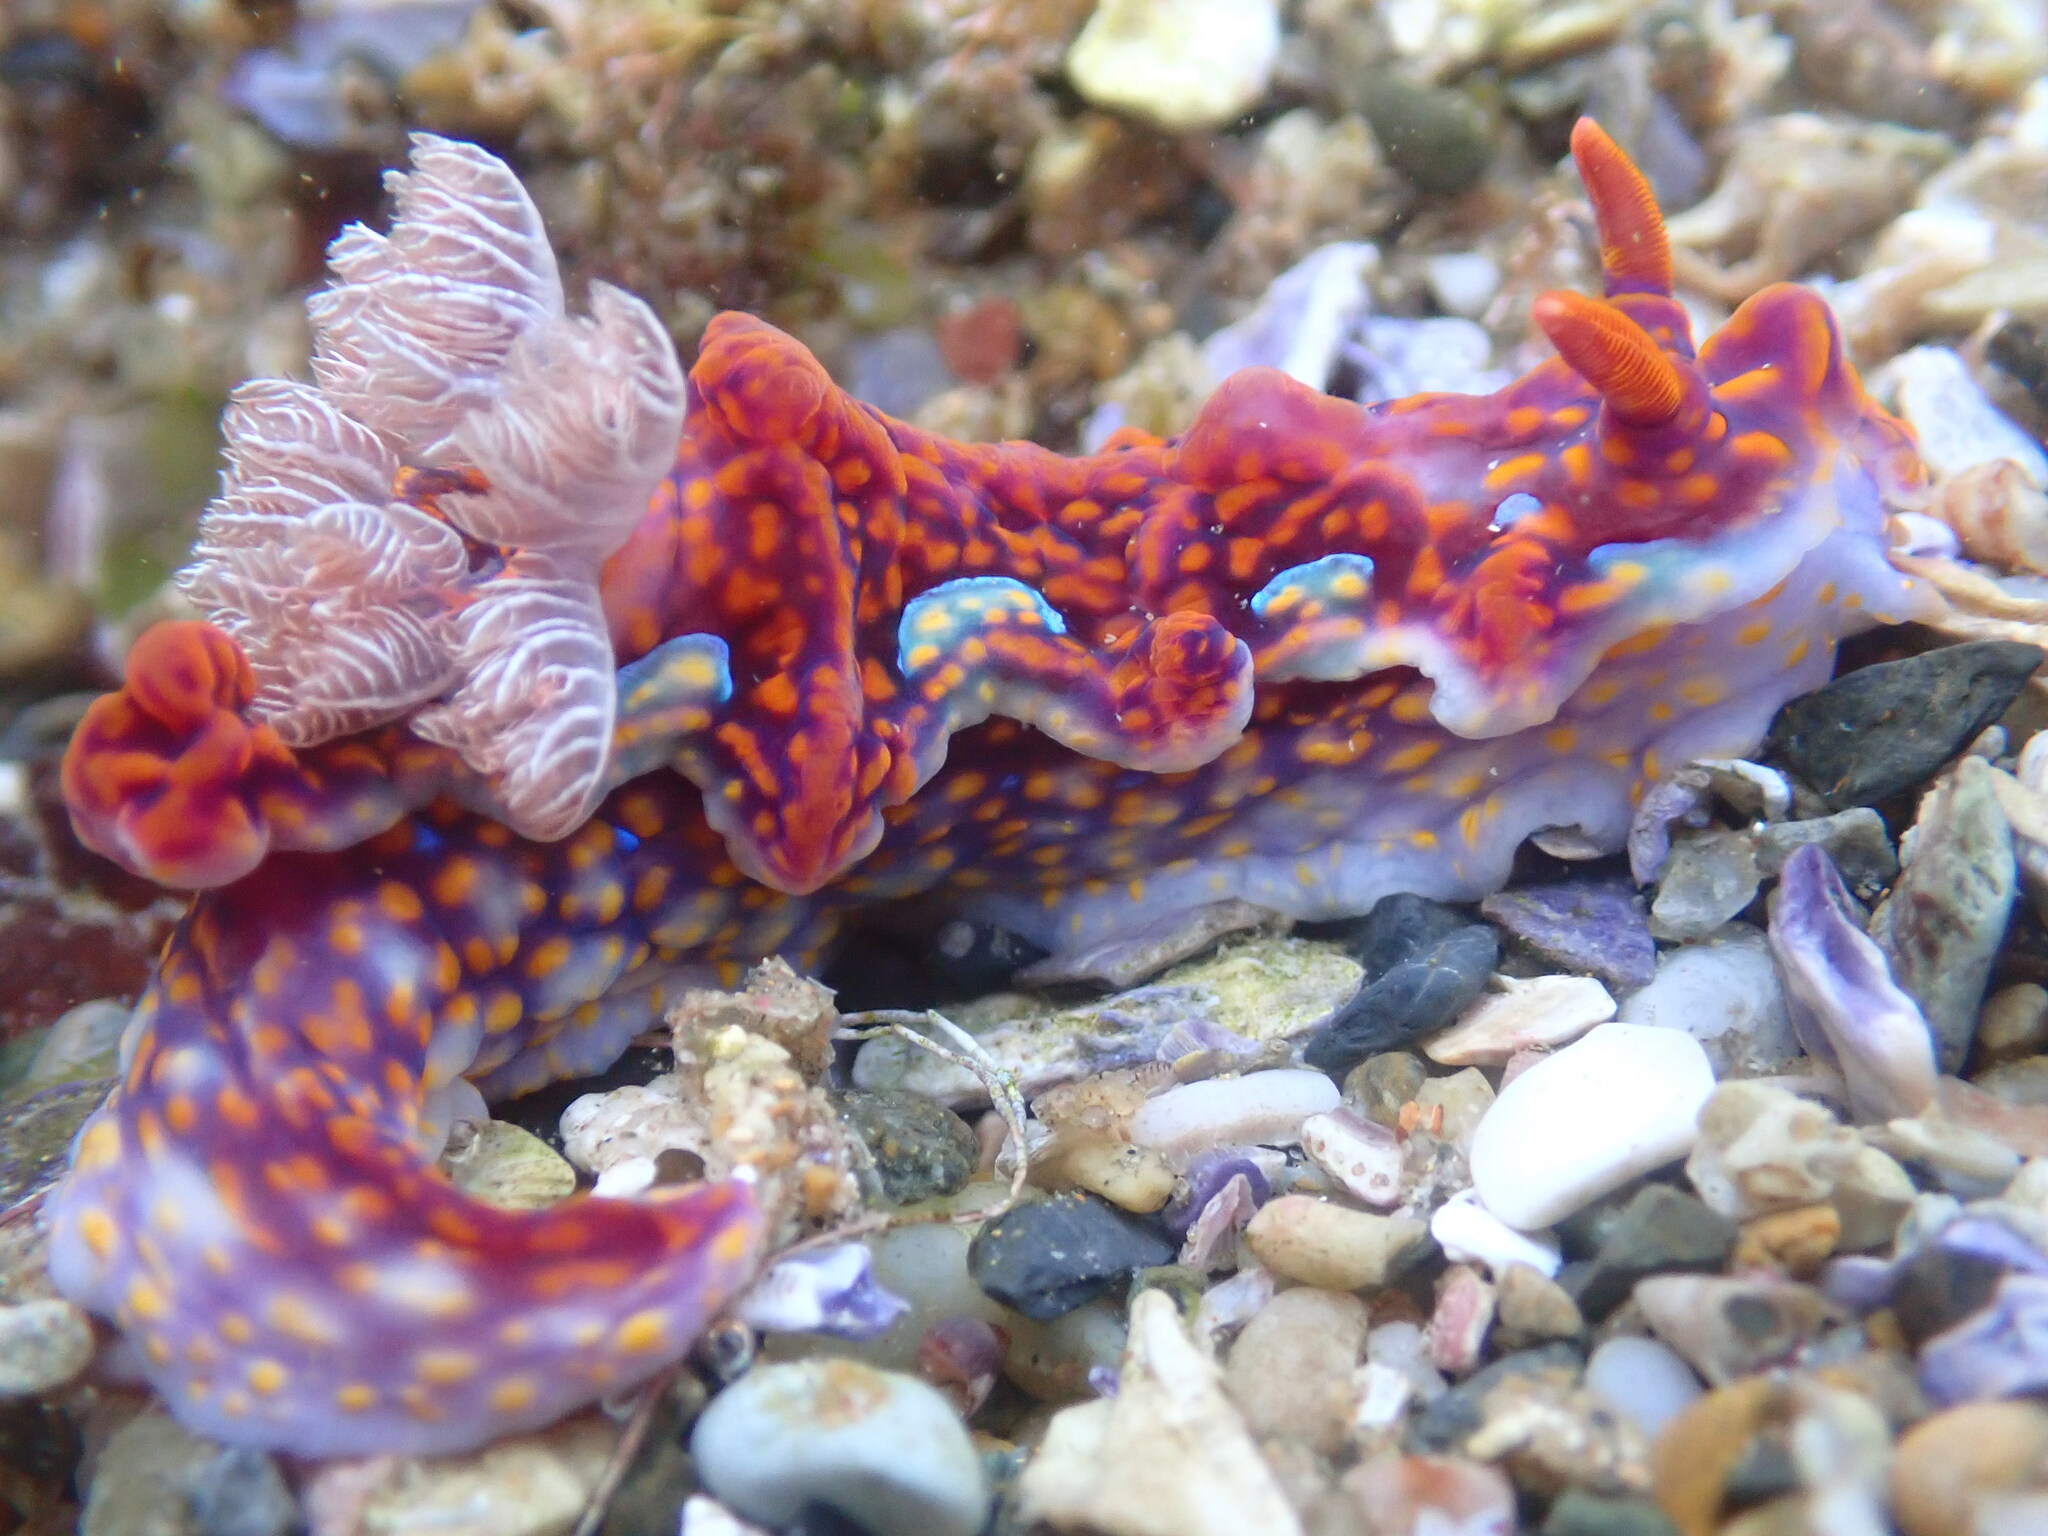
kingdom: Animalia
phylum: Mollusca
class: Gastropoda
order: Nudibranchia
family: Chromodorididae
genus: Miamira
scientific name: Miamira flavicostata
